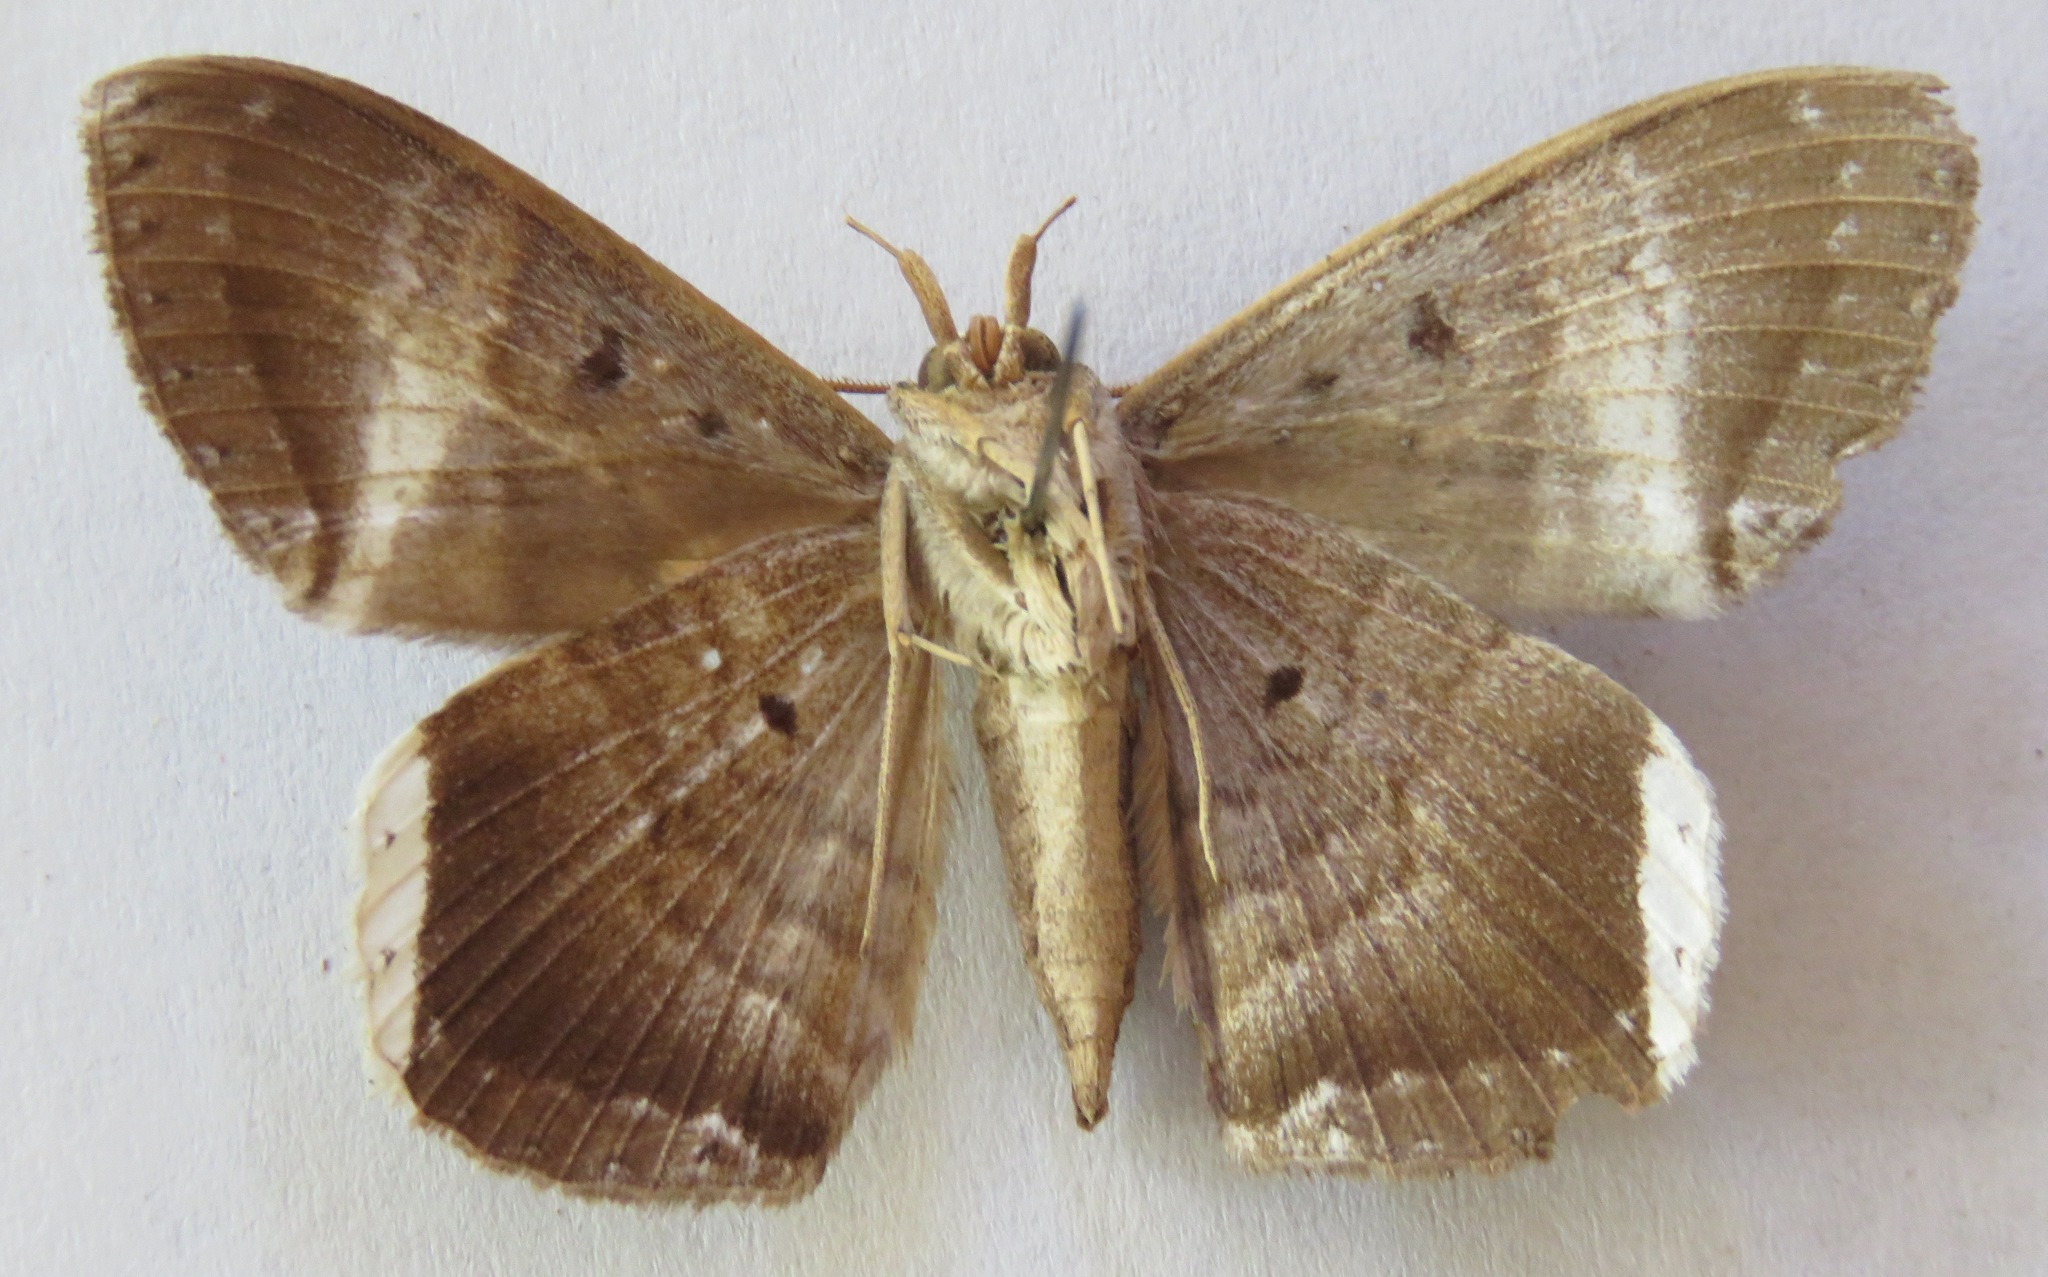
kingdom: Animalia
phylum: Arthropoda
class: Insecta
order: Lepidoptera
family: Erebidae
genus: Hemeroblemma
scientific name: Hemeroblemma mexicana
